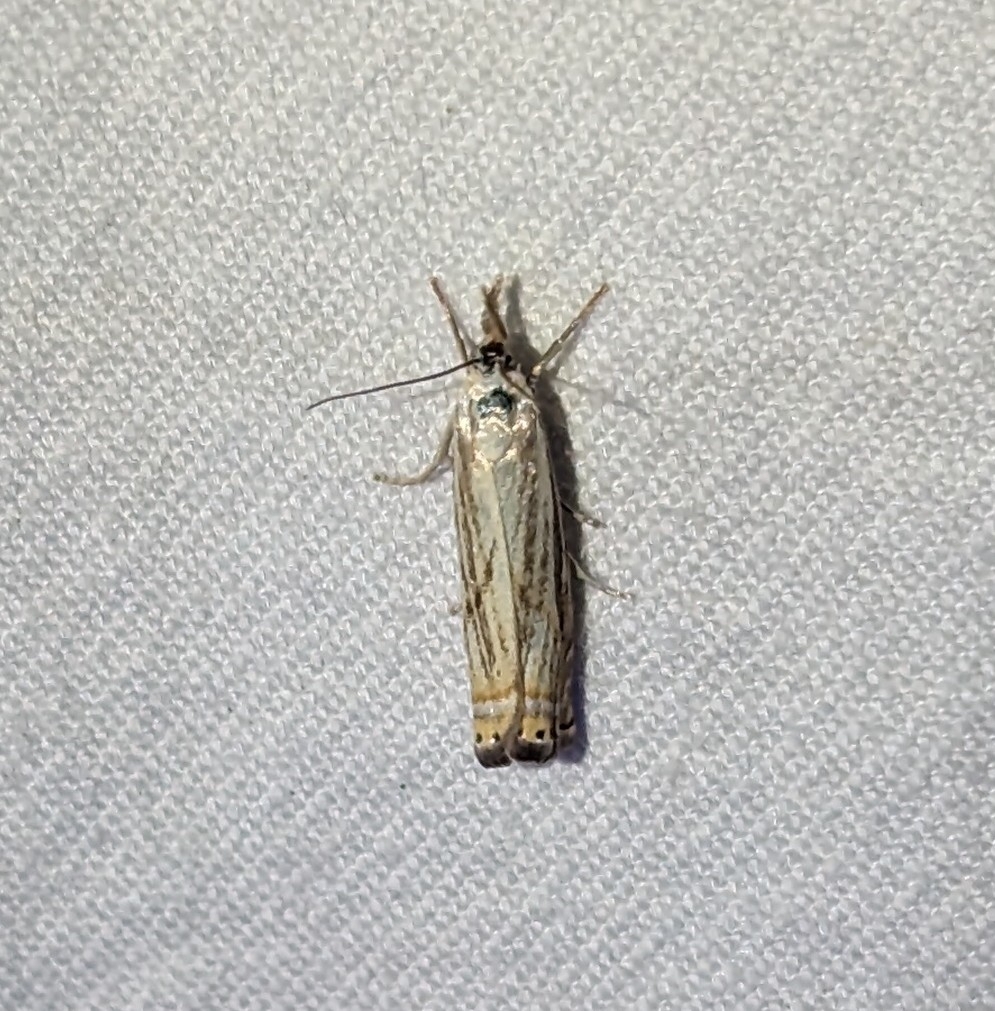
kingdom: Animalia
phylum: Arthropoda
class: Insecta
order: Lepidoptera
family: Crambidae
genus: Chrysoteuchia
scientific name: Chrysoteuchia topiarius
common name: Topiary grass-veneer
